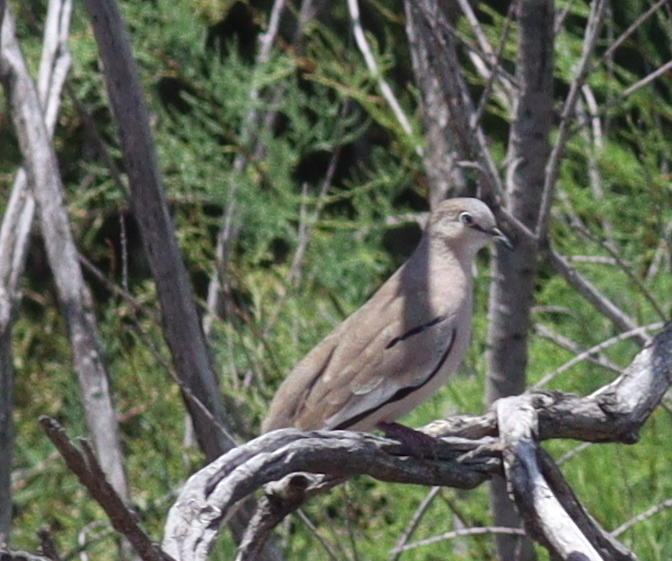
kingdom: Animalia
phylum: Chordata
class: Aves
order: Columbiformes
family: Columbidae
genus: Columbina
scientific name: Columbina picui
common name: Picui ground dove
